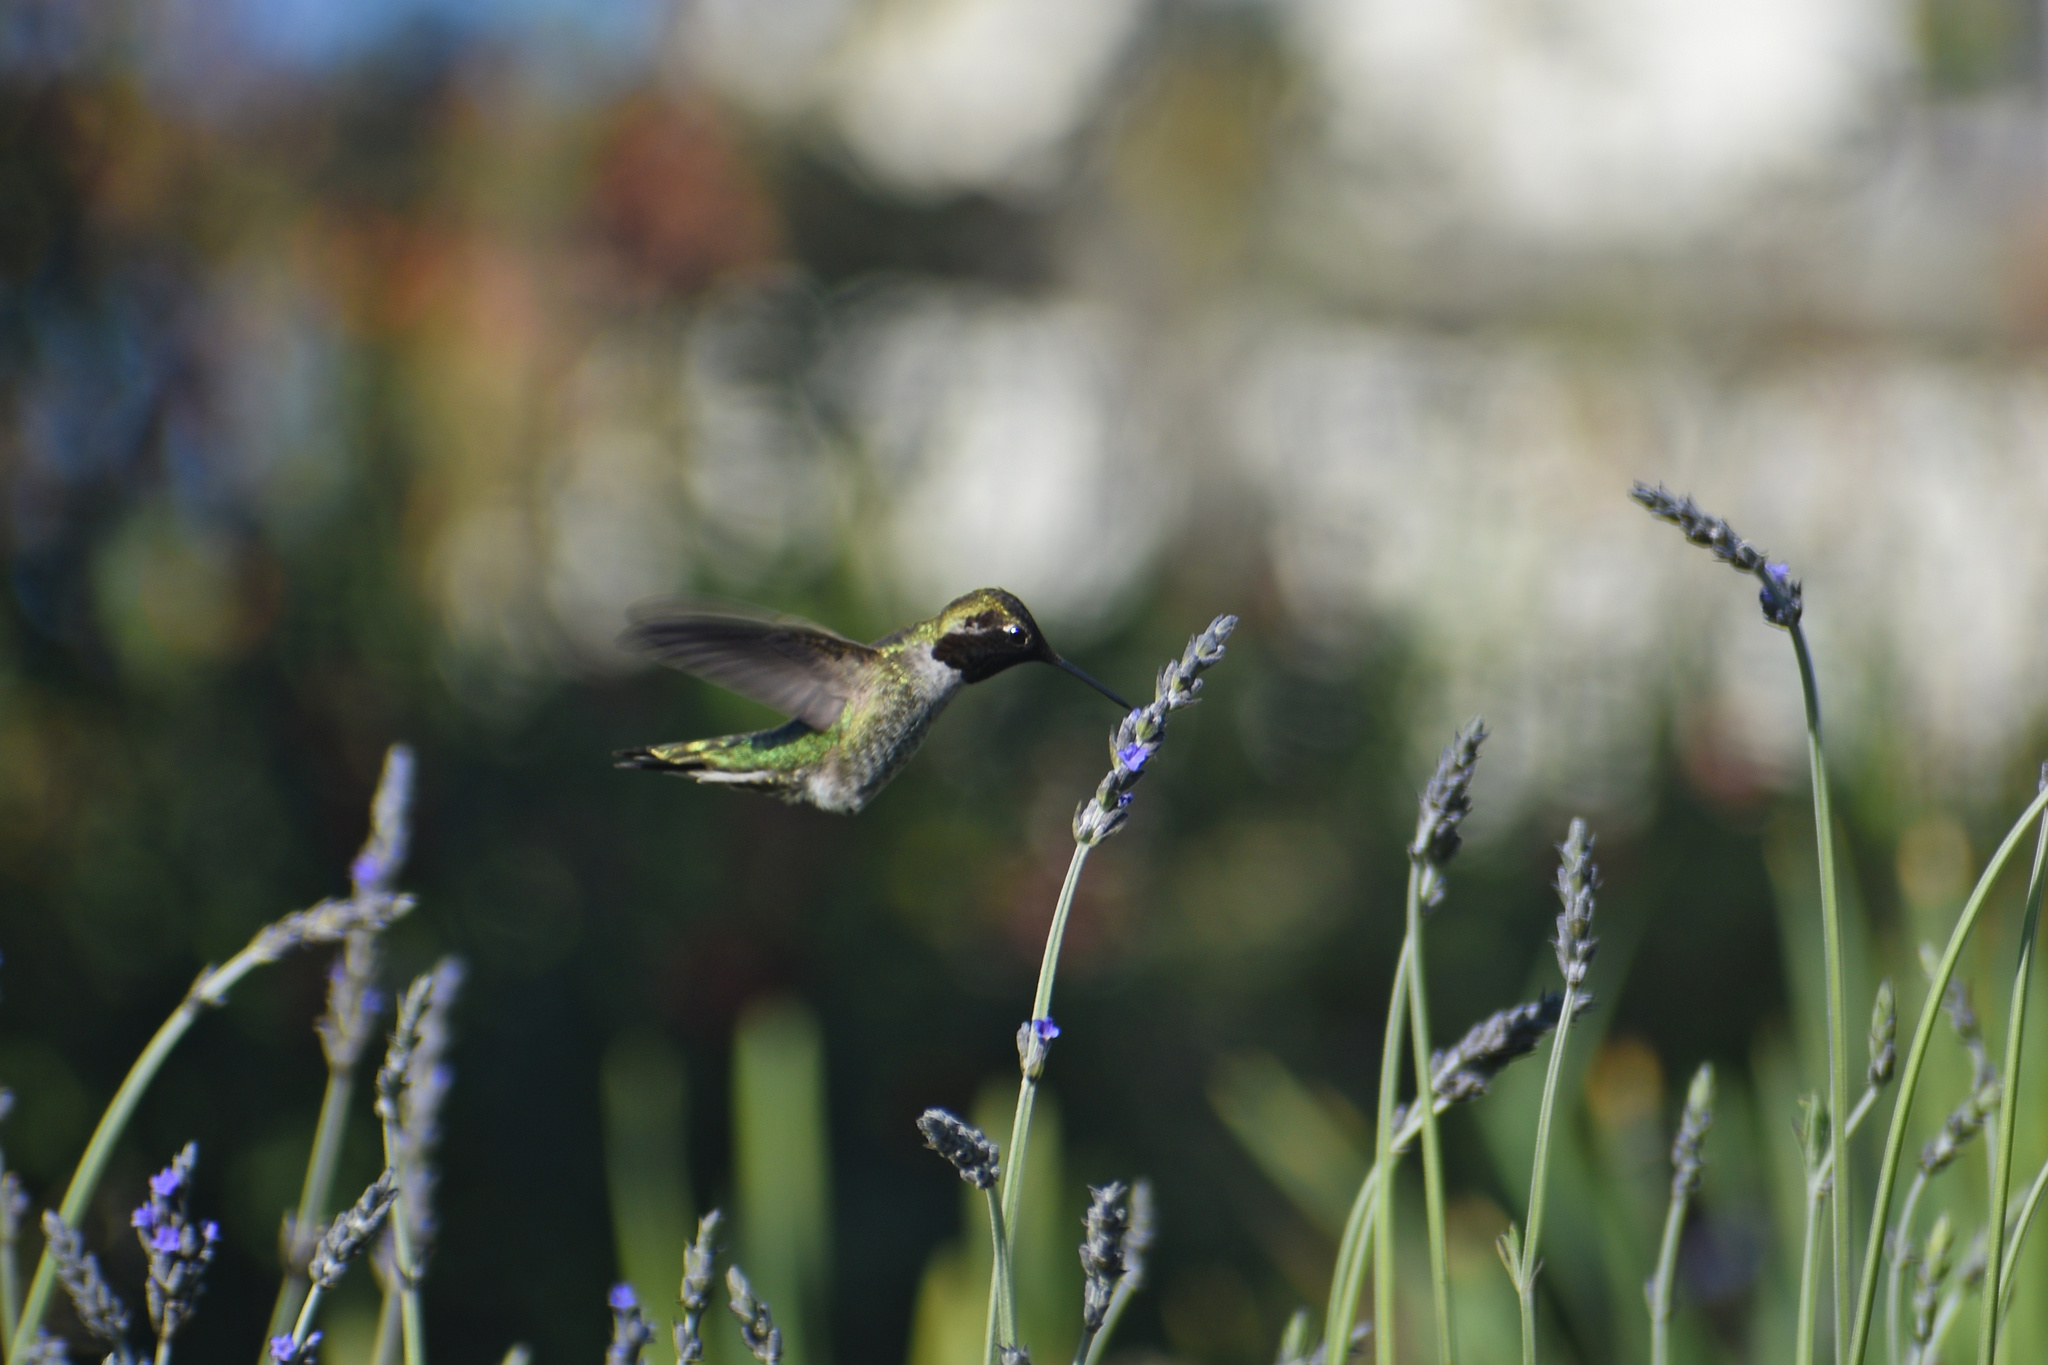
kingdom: Animalia
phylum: Chordata
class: Aves
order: Apodiformes
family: Trochilidae
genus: Calypte
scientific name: Calypte anna
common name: Anna's hummingbird
